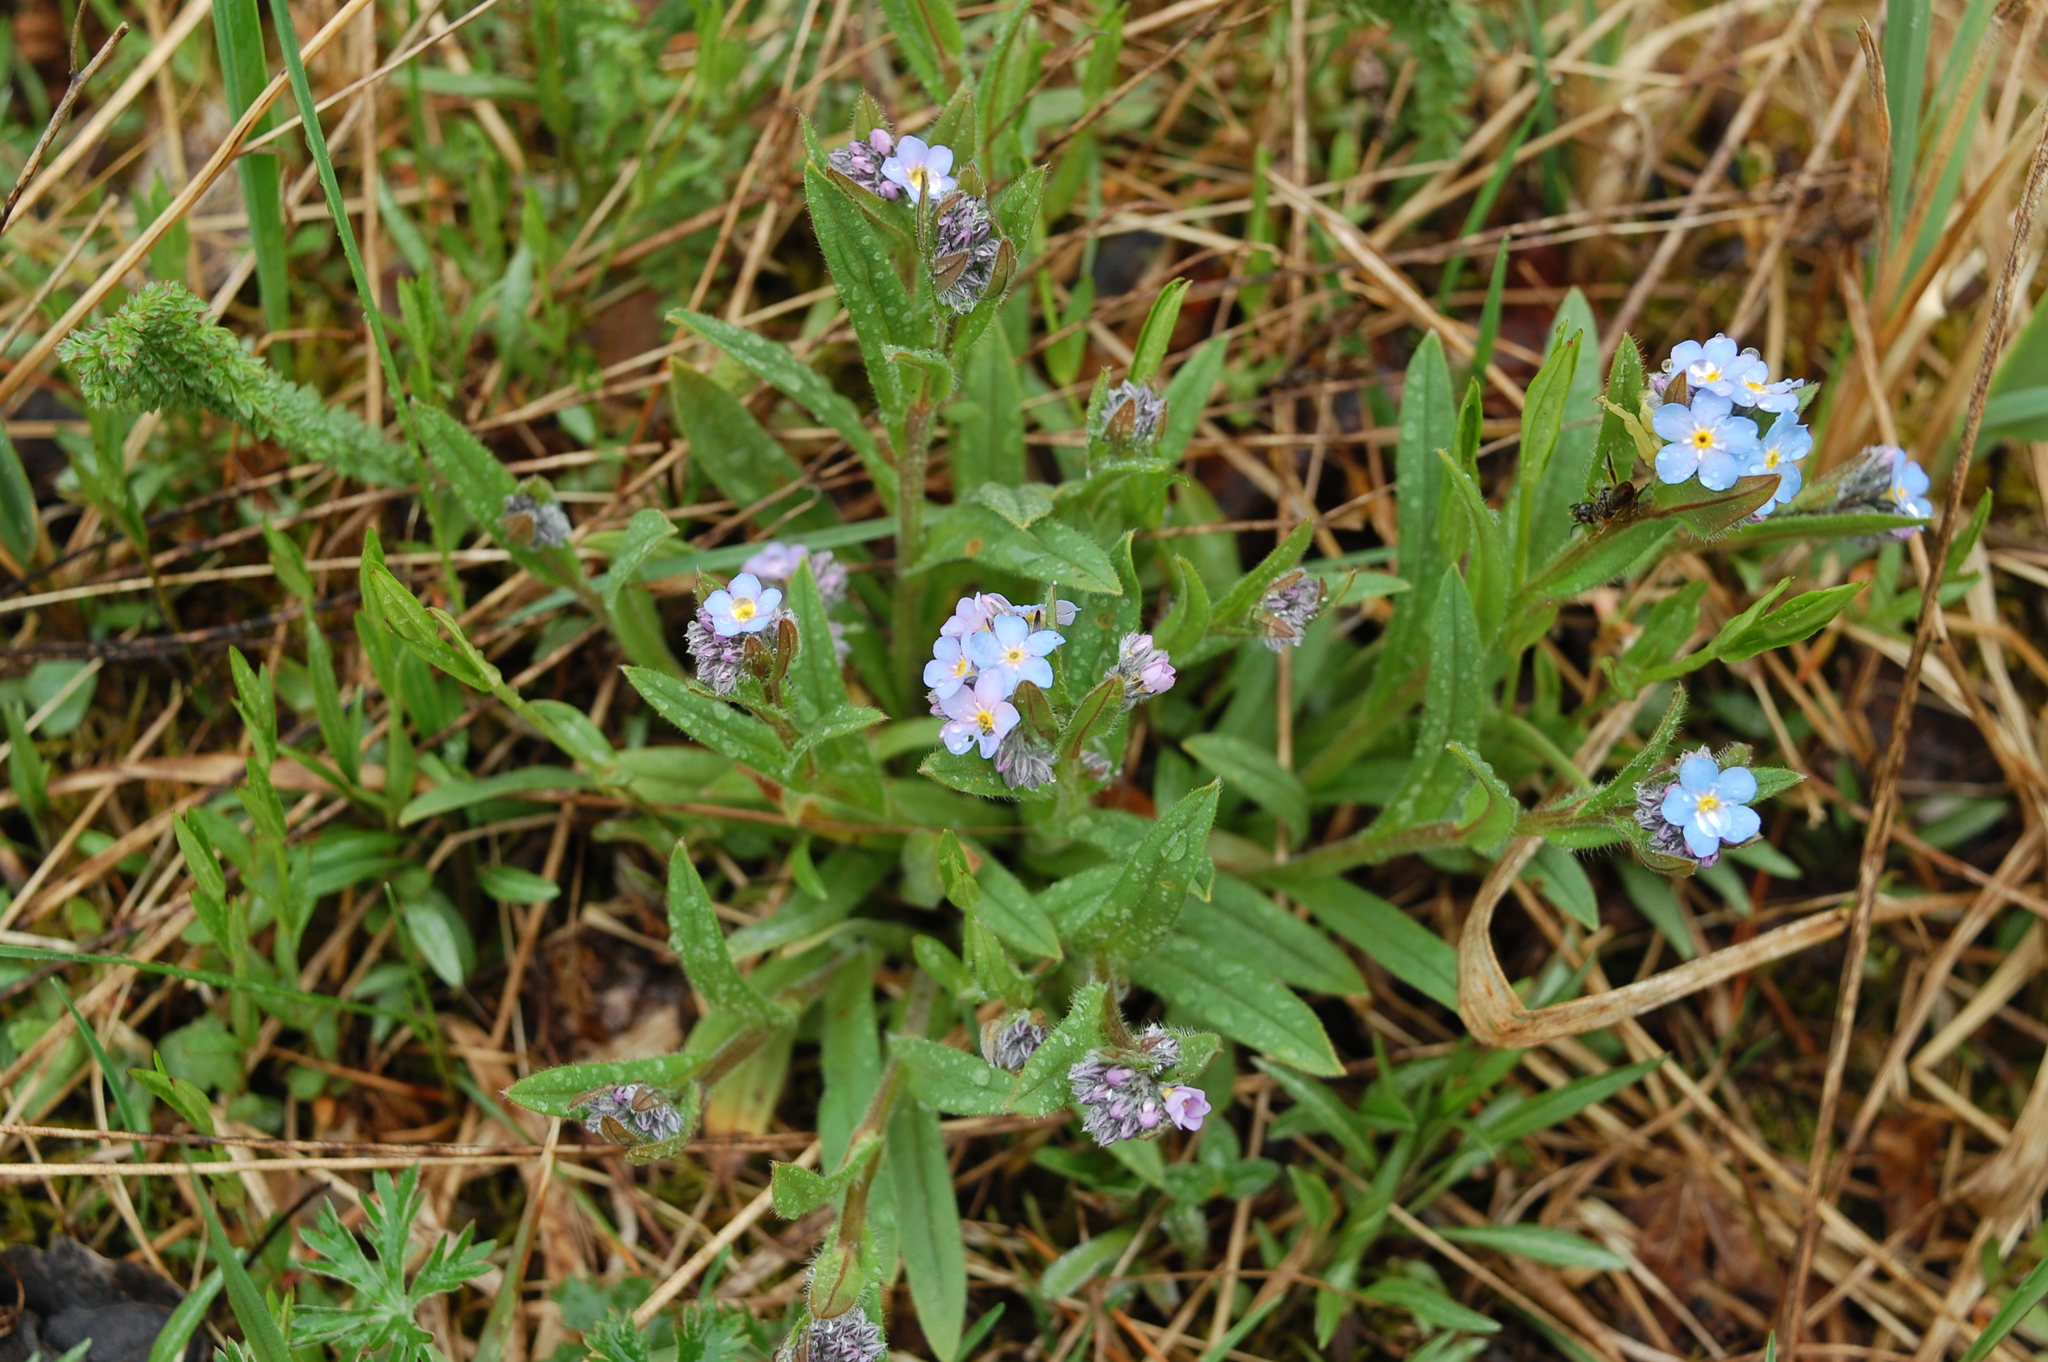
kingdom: Plantae
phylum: Tracheophyta
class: Magnoliopsida
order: Boraginales
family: Boraginaceae
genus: Myosotis
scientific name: Myosotis sylvatica
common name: Wood forget-me-not
